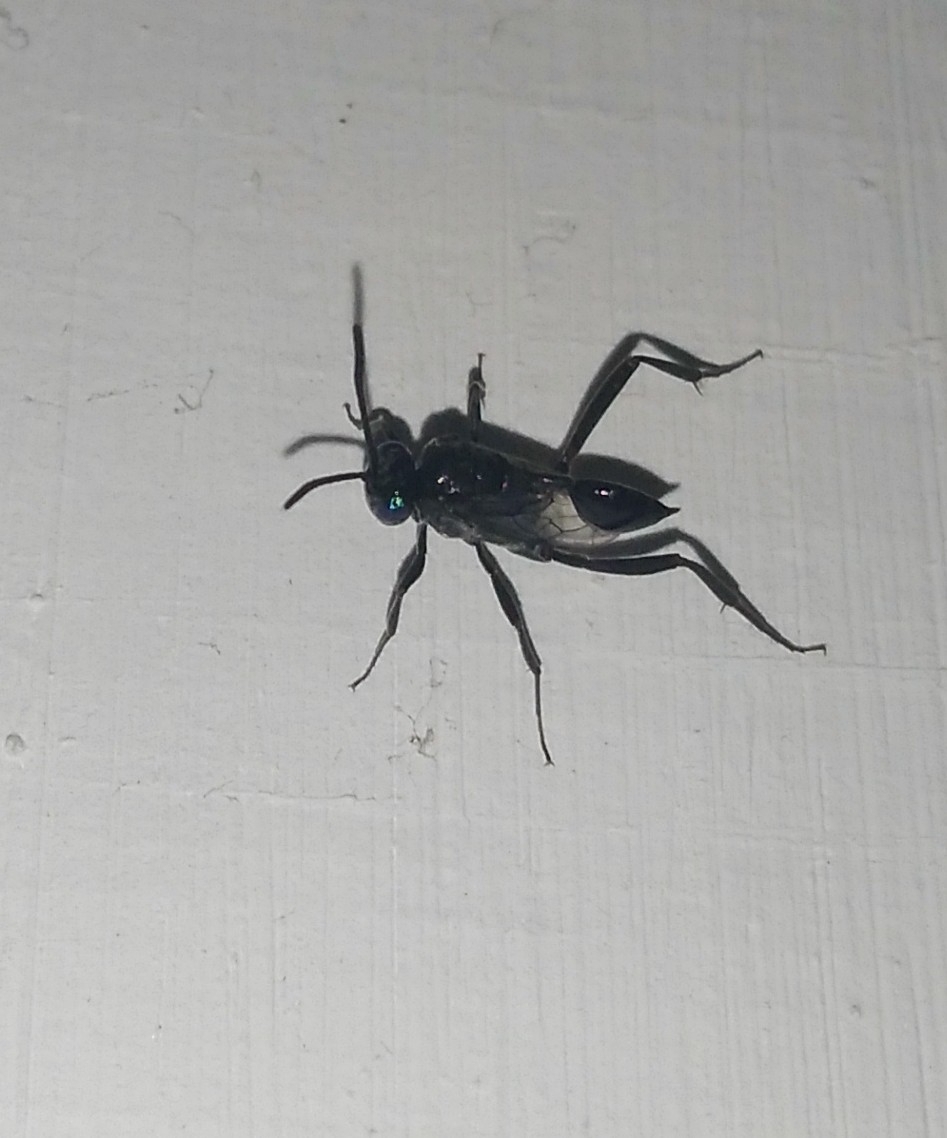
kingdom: Animalia
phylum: Arthropoda
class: Insecta
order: Hymenoptera
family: Evaniidae
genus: Evania
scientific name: Evania appendigaster
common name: Ensign wasp
